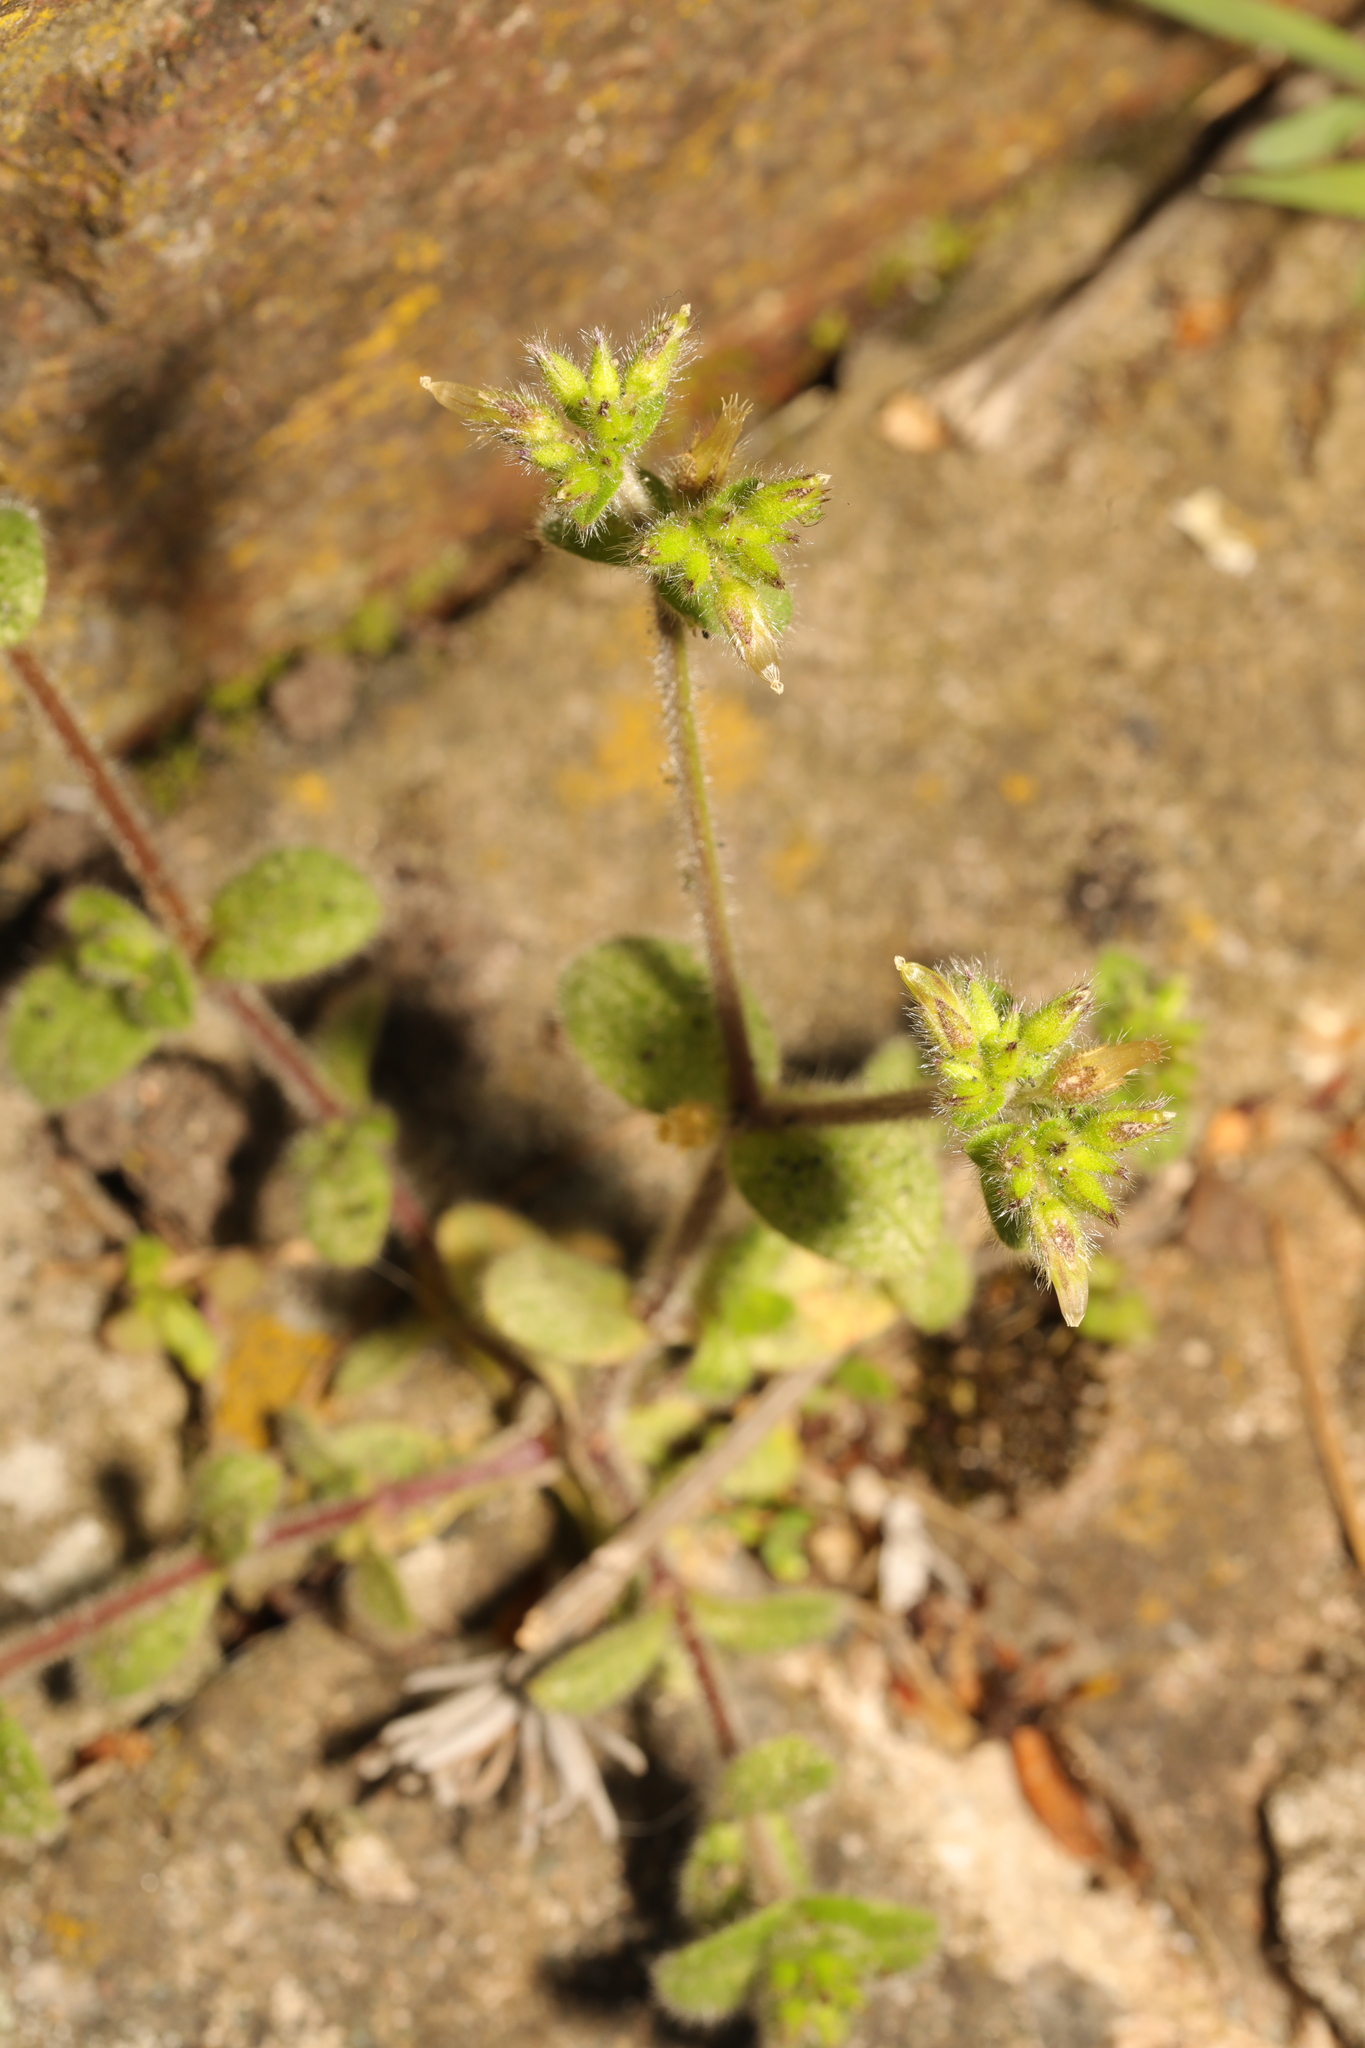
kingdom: Plantae
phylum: Tracheophyta
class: Magnoliopsida
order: Caryophyllales
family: Caryophyllaceae
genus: Cerastium
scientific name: Cerastium glomeratum
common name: Sticky chickweed
